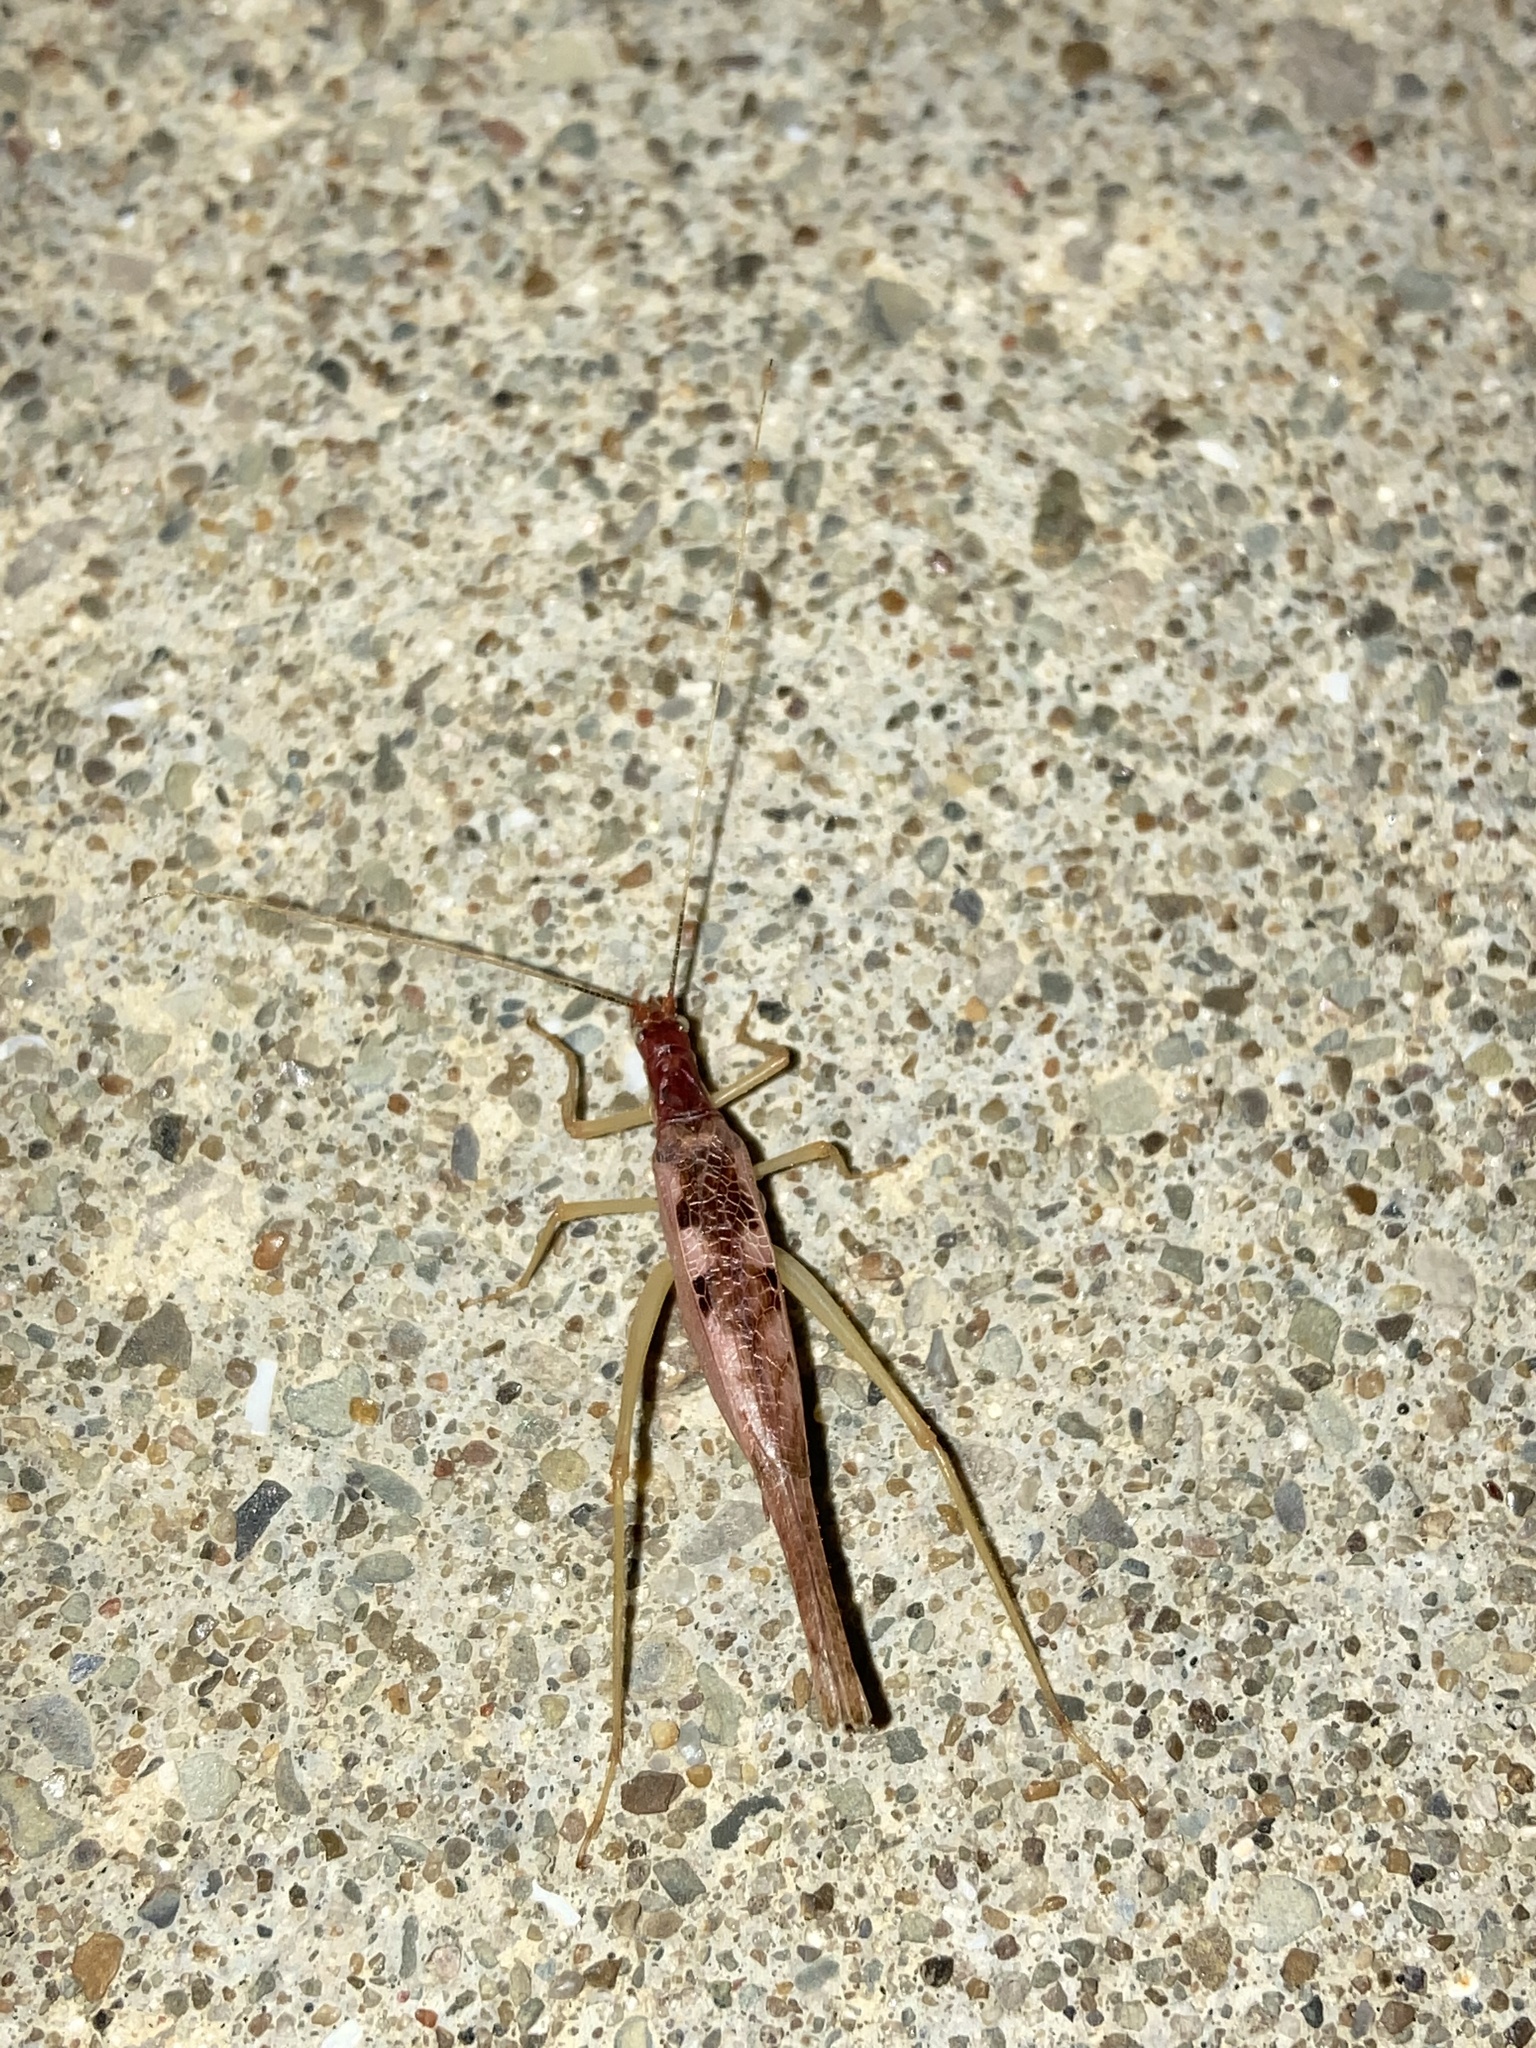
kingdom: Animalia
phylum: Arthropoda
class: Insecta
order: Orthoptera
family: Gryllidae
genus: Neoxabea
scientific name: Neoxabea bipunctata
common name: Two-spotted tree cricket
